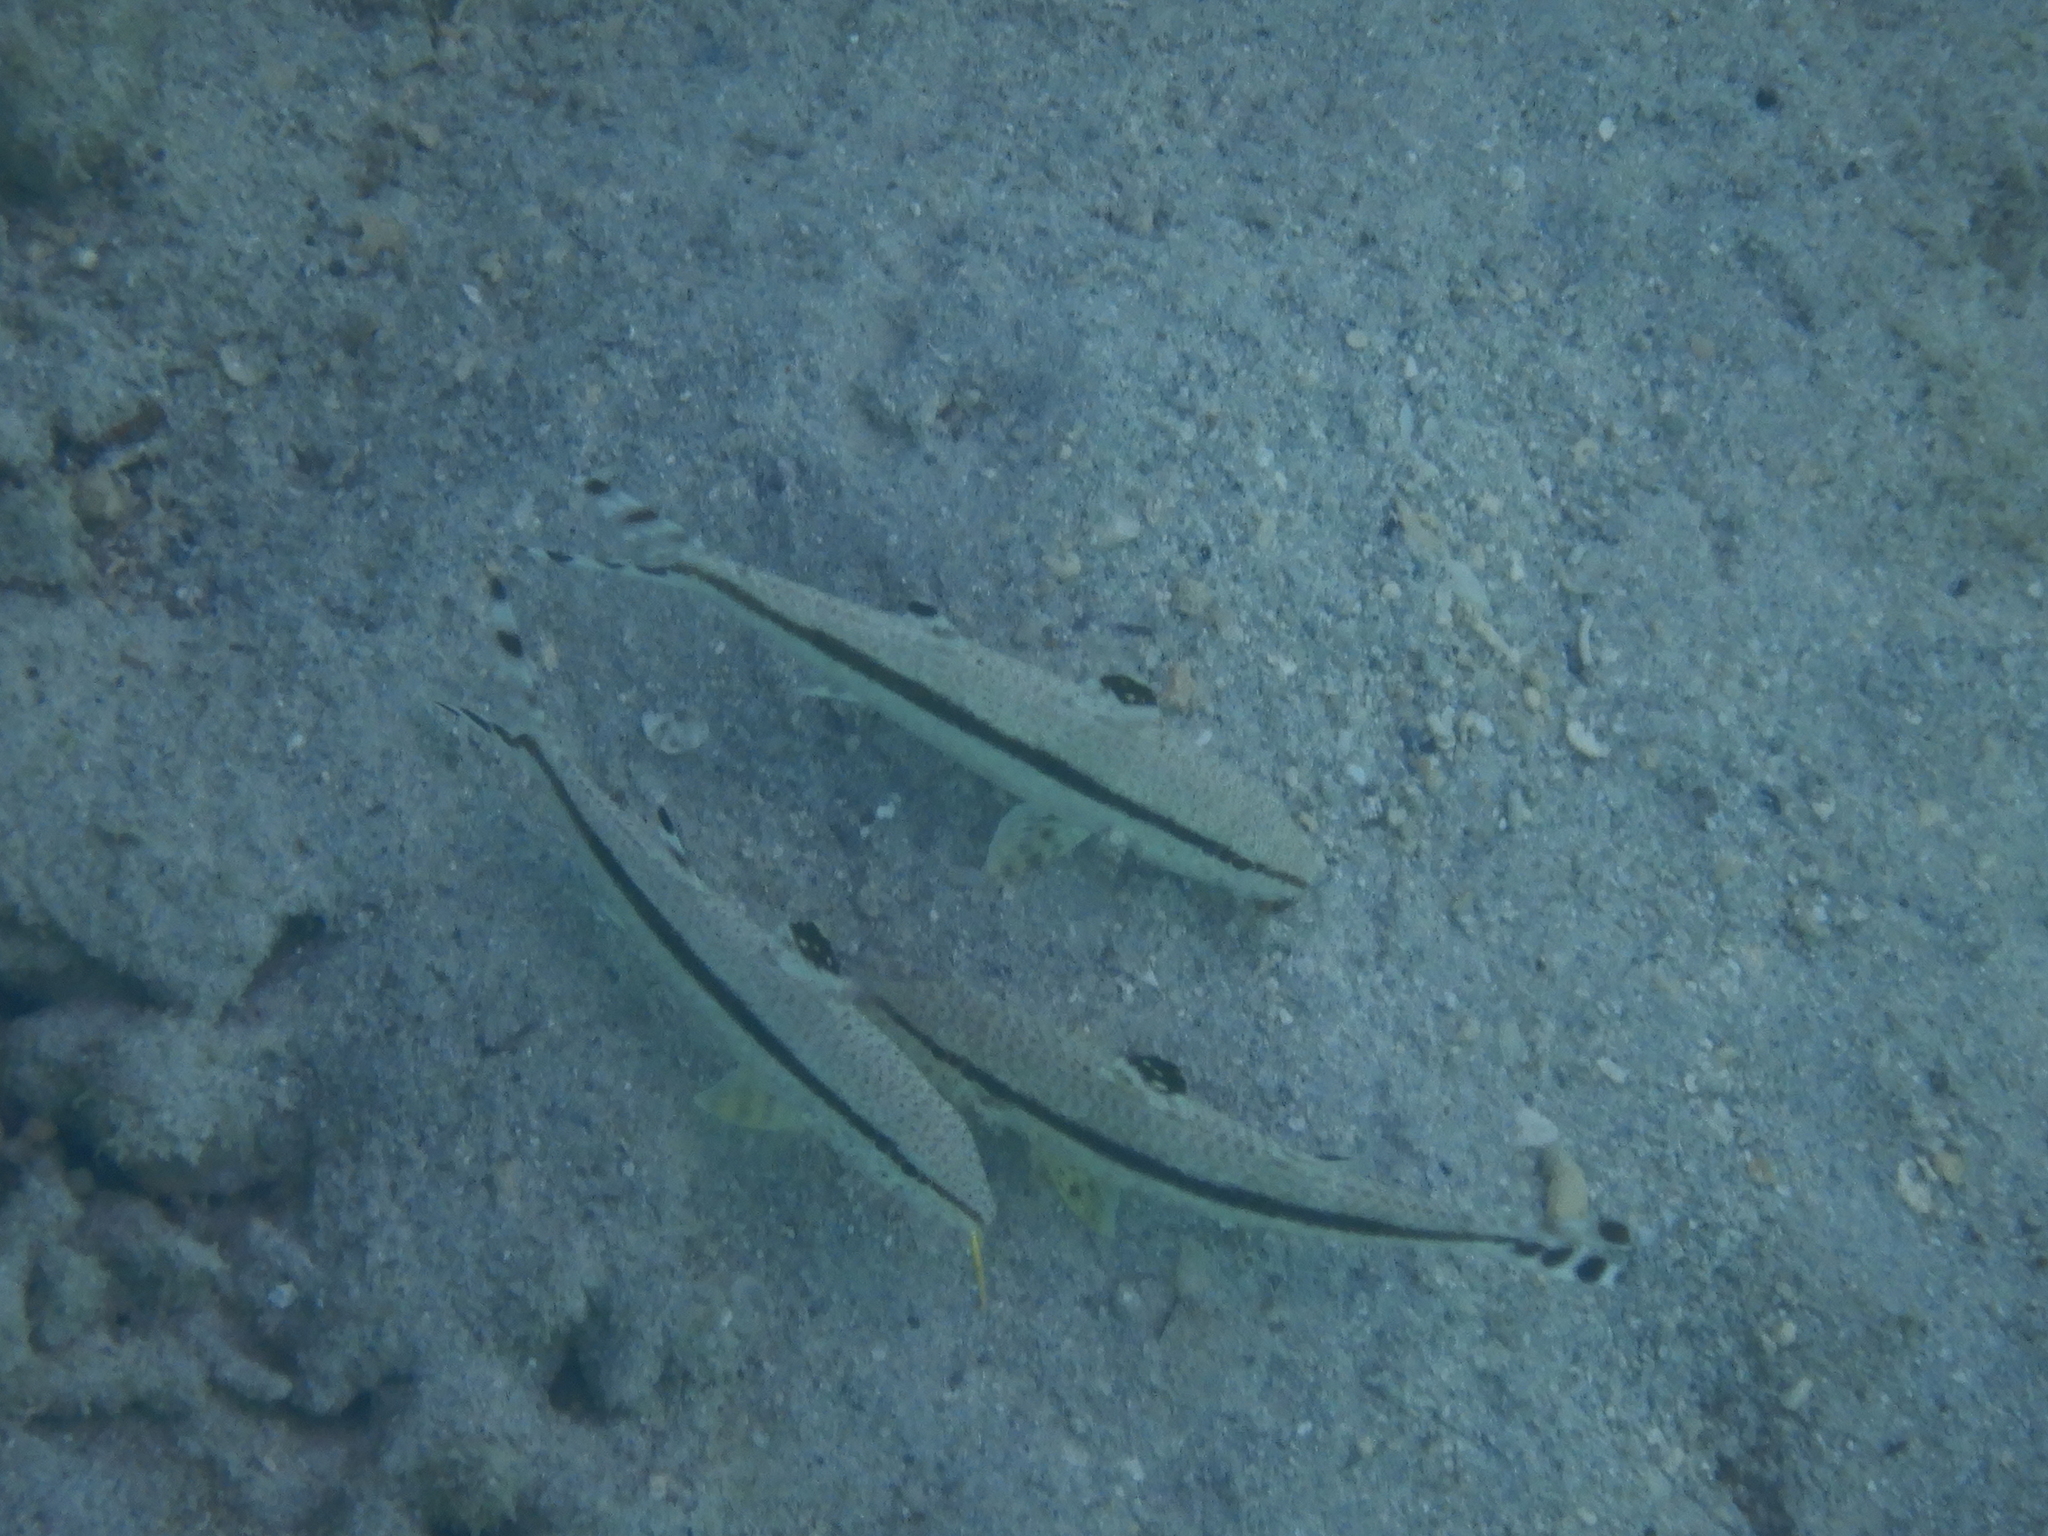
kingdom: Animalia
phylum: Chordata
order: Perciformes
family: Mullidae
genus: Upeneus
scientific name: Upeneus australiae
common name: Australian goatfish
